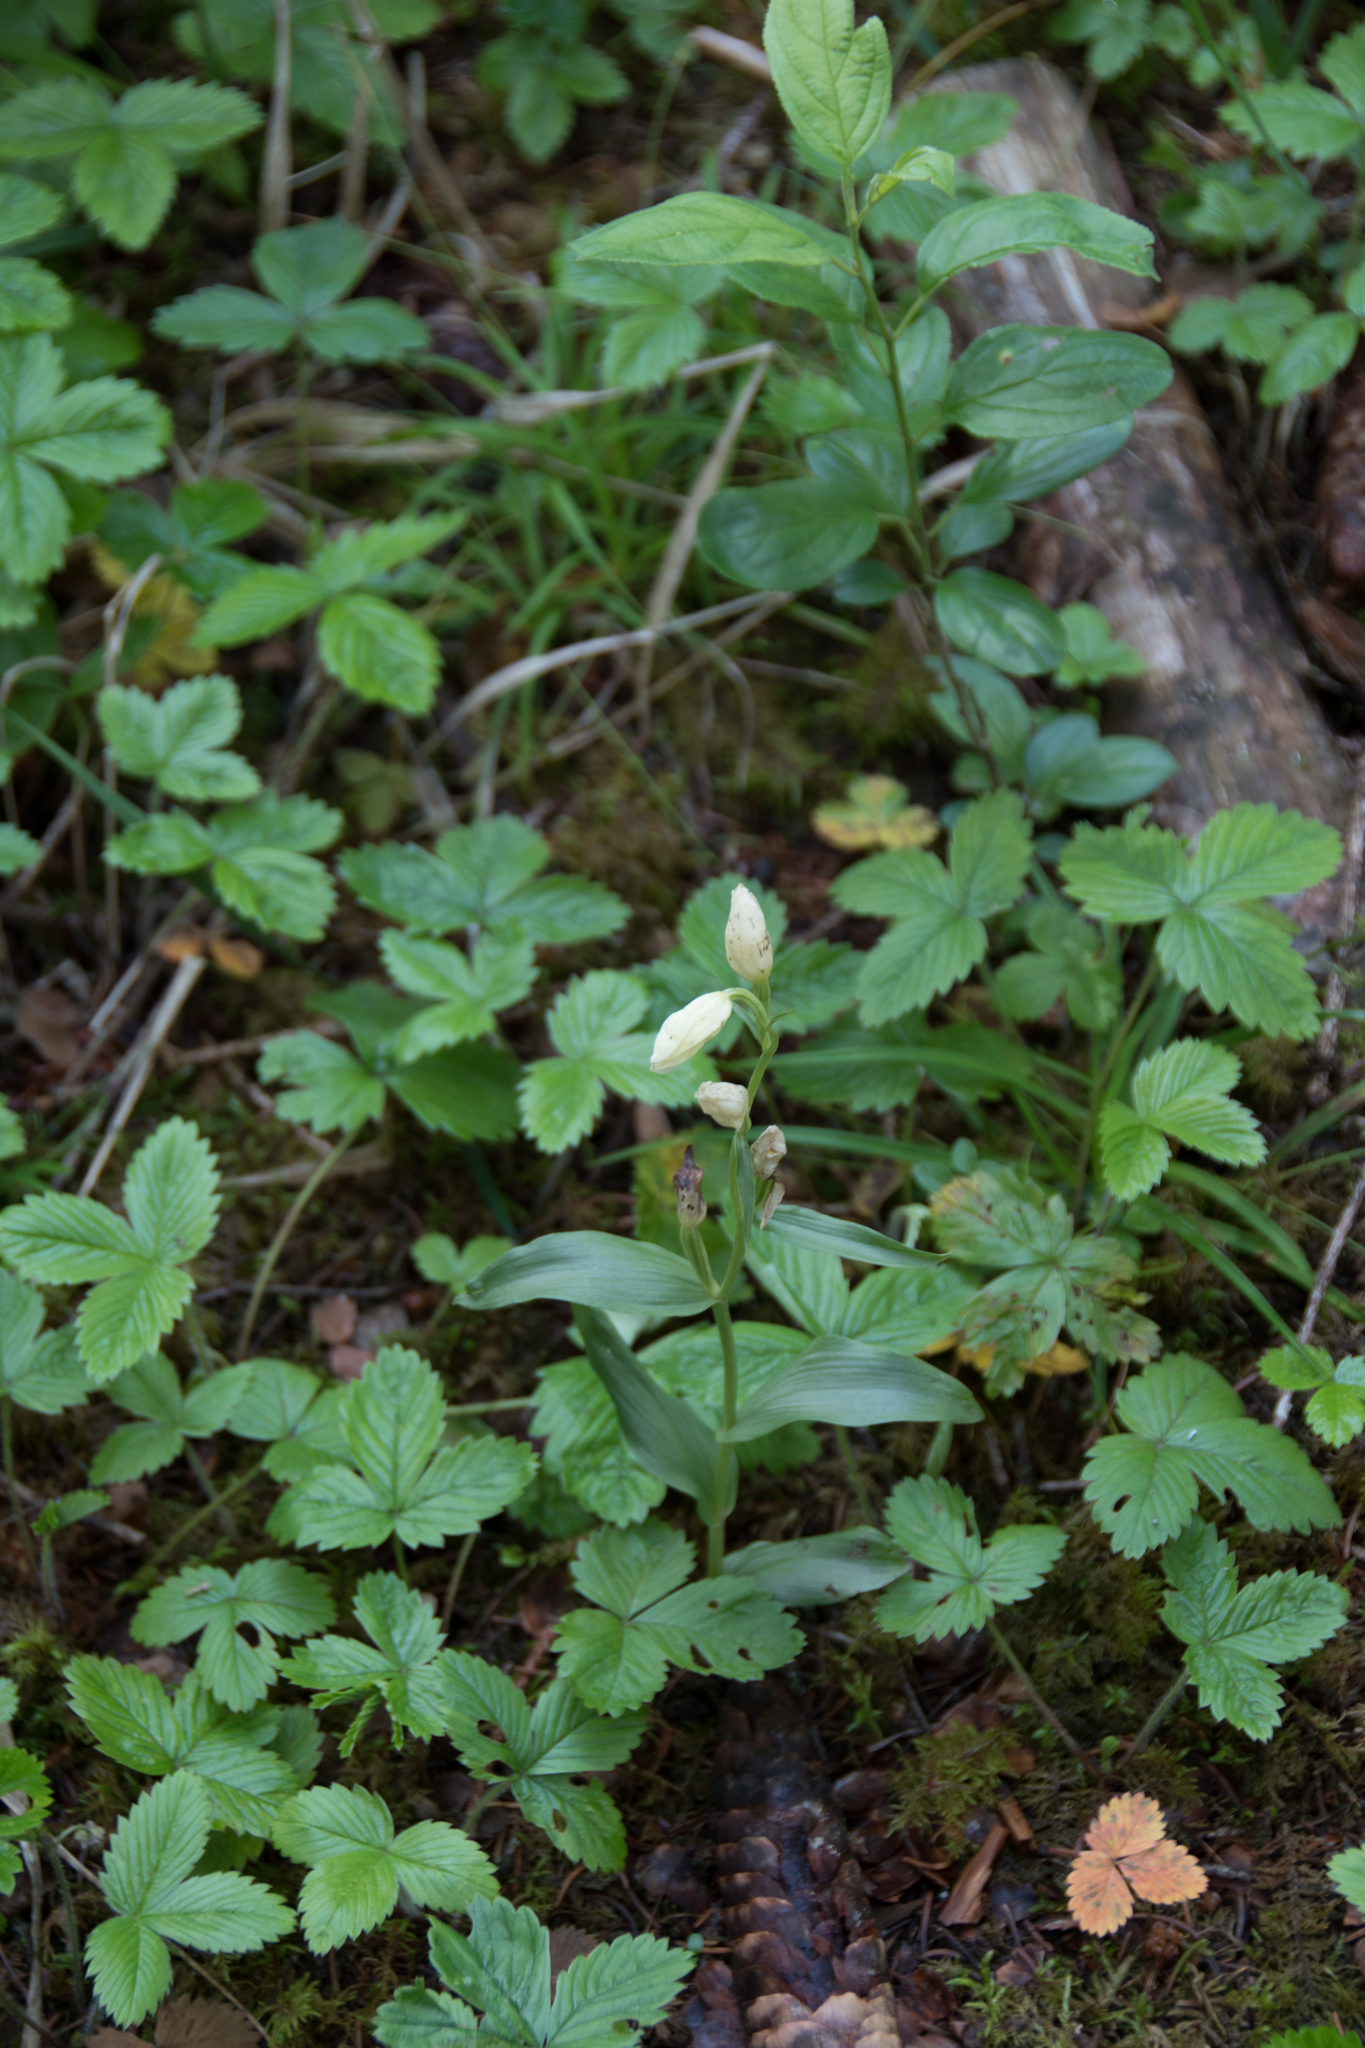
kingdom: Plantae
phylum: Tracheophyta
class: Liliopsida
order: Asparagales
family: Orchidaceae
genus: Cephalanthera
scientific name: Cephalanthera damasonium
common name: White helleborine
